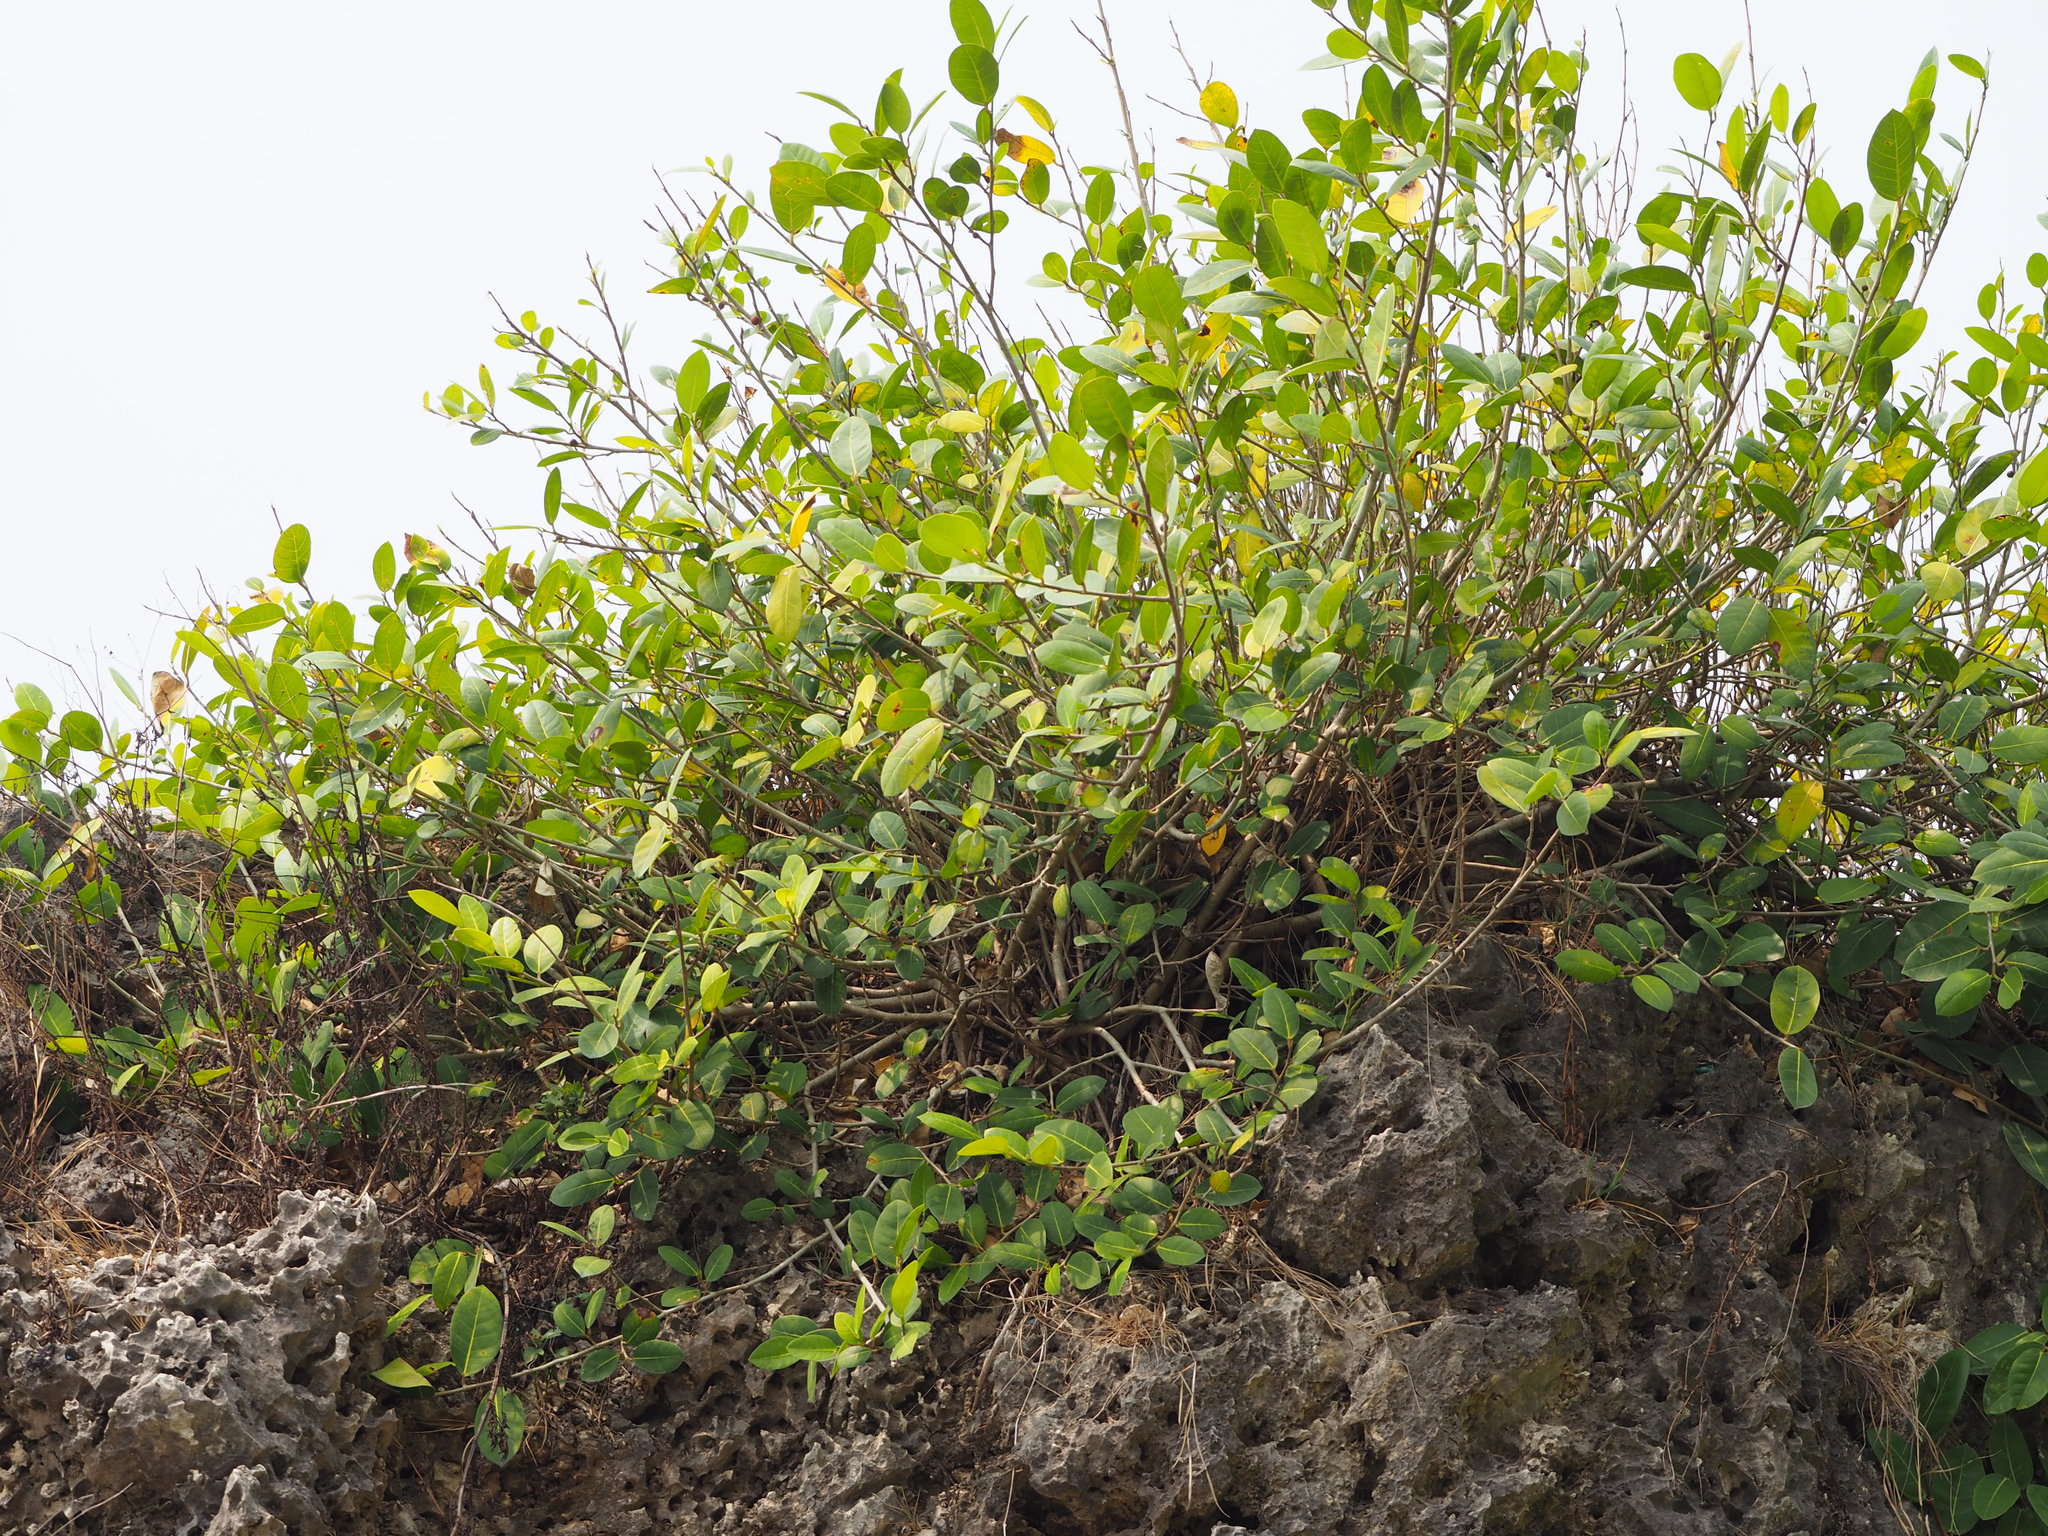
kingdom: Plantae
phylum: Tracheophyta
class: Magnoliopsida
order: Rosales
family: Moraceae
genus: Ficus
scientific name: Ficus tinctoria
